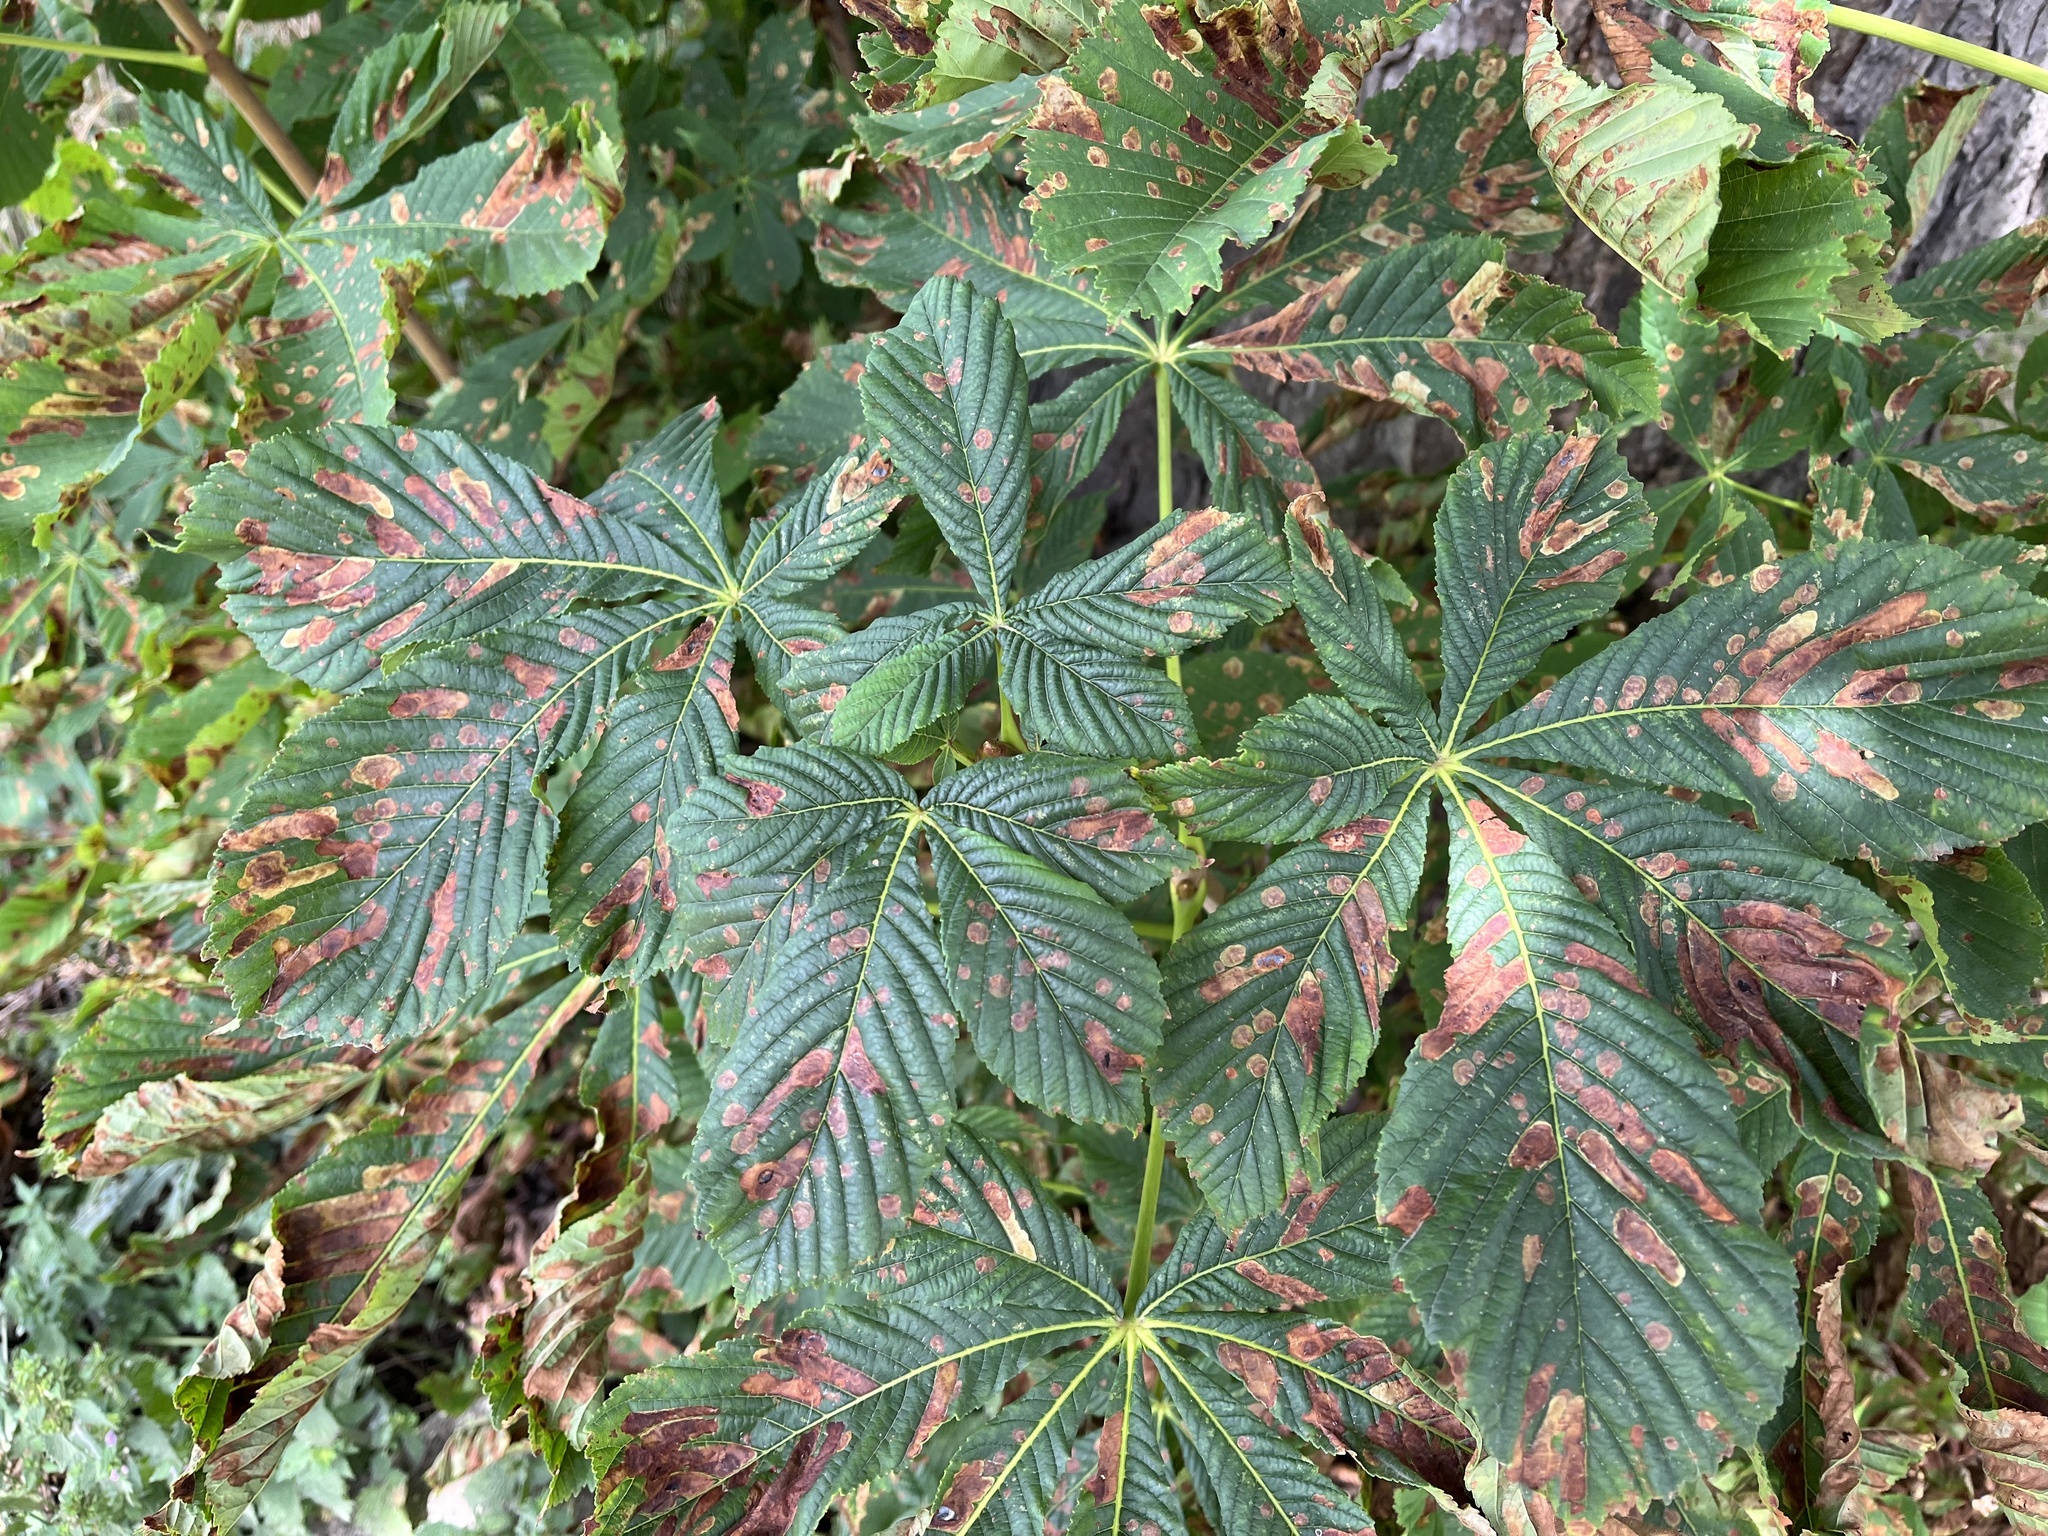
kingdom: Animalia
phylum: Arthropoda
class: Insecta
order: Lepidoptera
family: Gracillariidae
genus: Cameraria
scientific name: Cameraria ohridella
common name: Horse-chestnut leaf-miner
